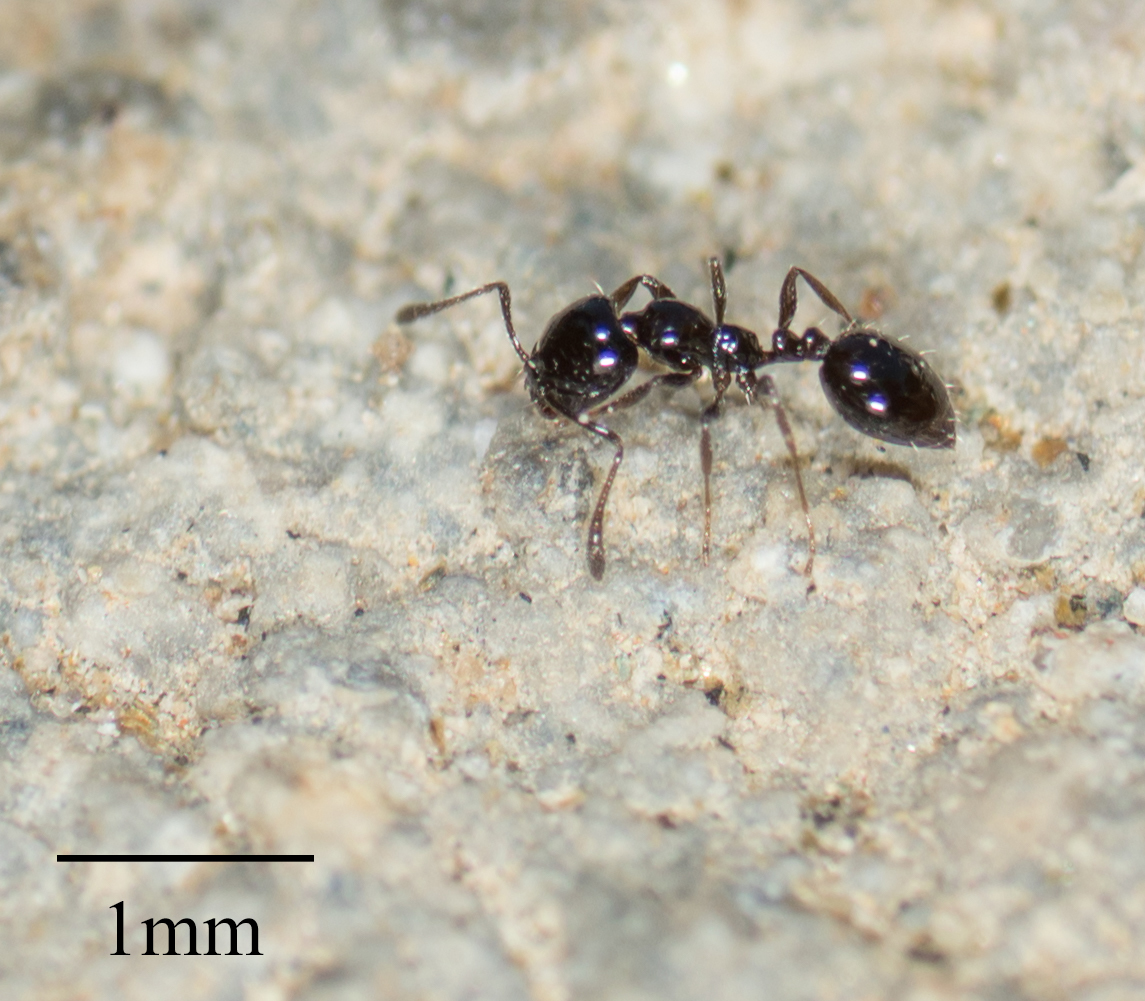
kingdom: Animalia
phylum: Arthropoda
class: Insecta
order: Hymenoptera
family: Formicidae
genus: Monomorium
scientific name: Monomorium ergatogyna
